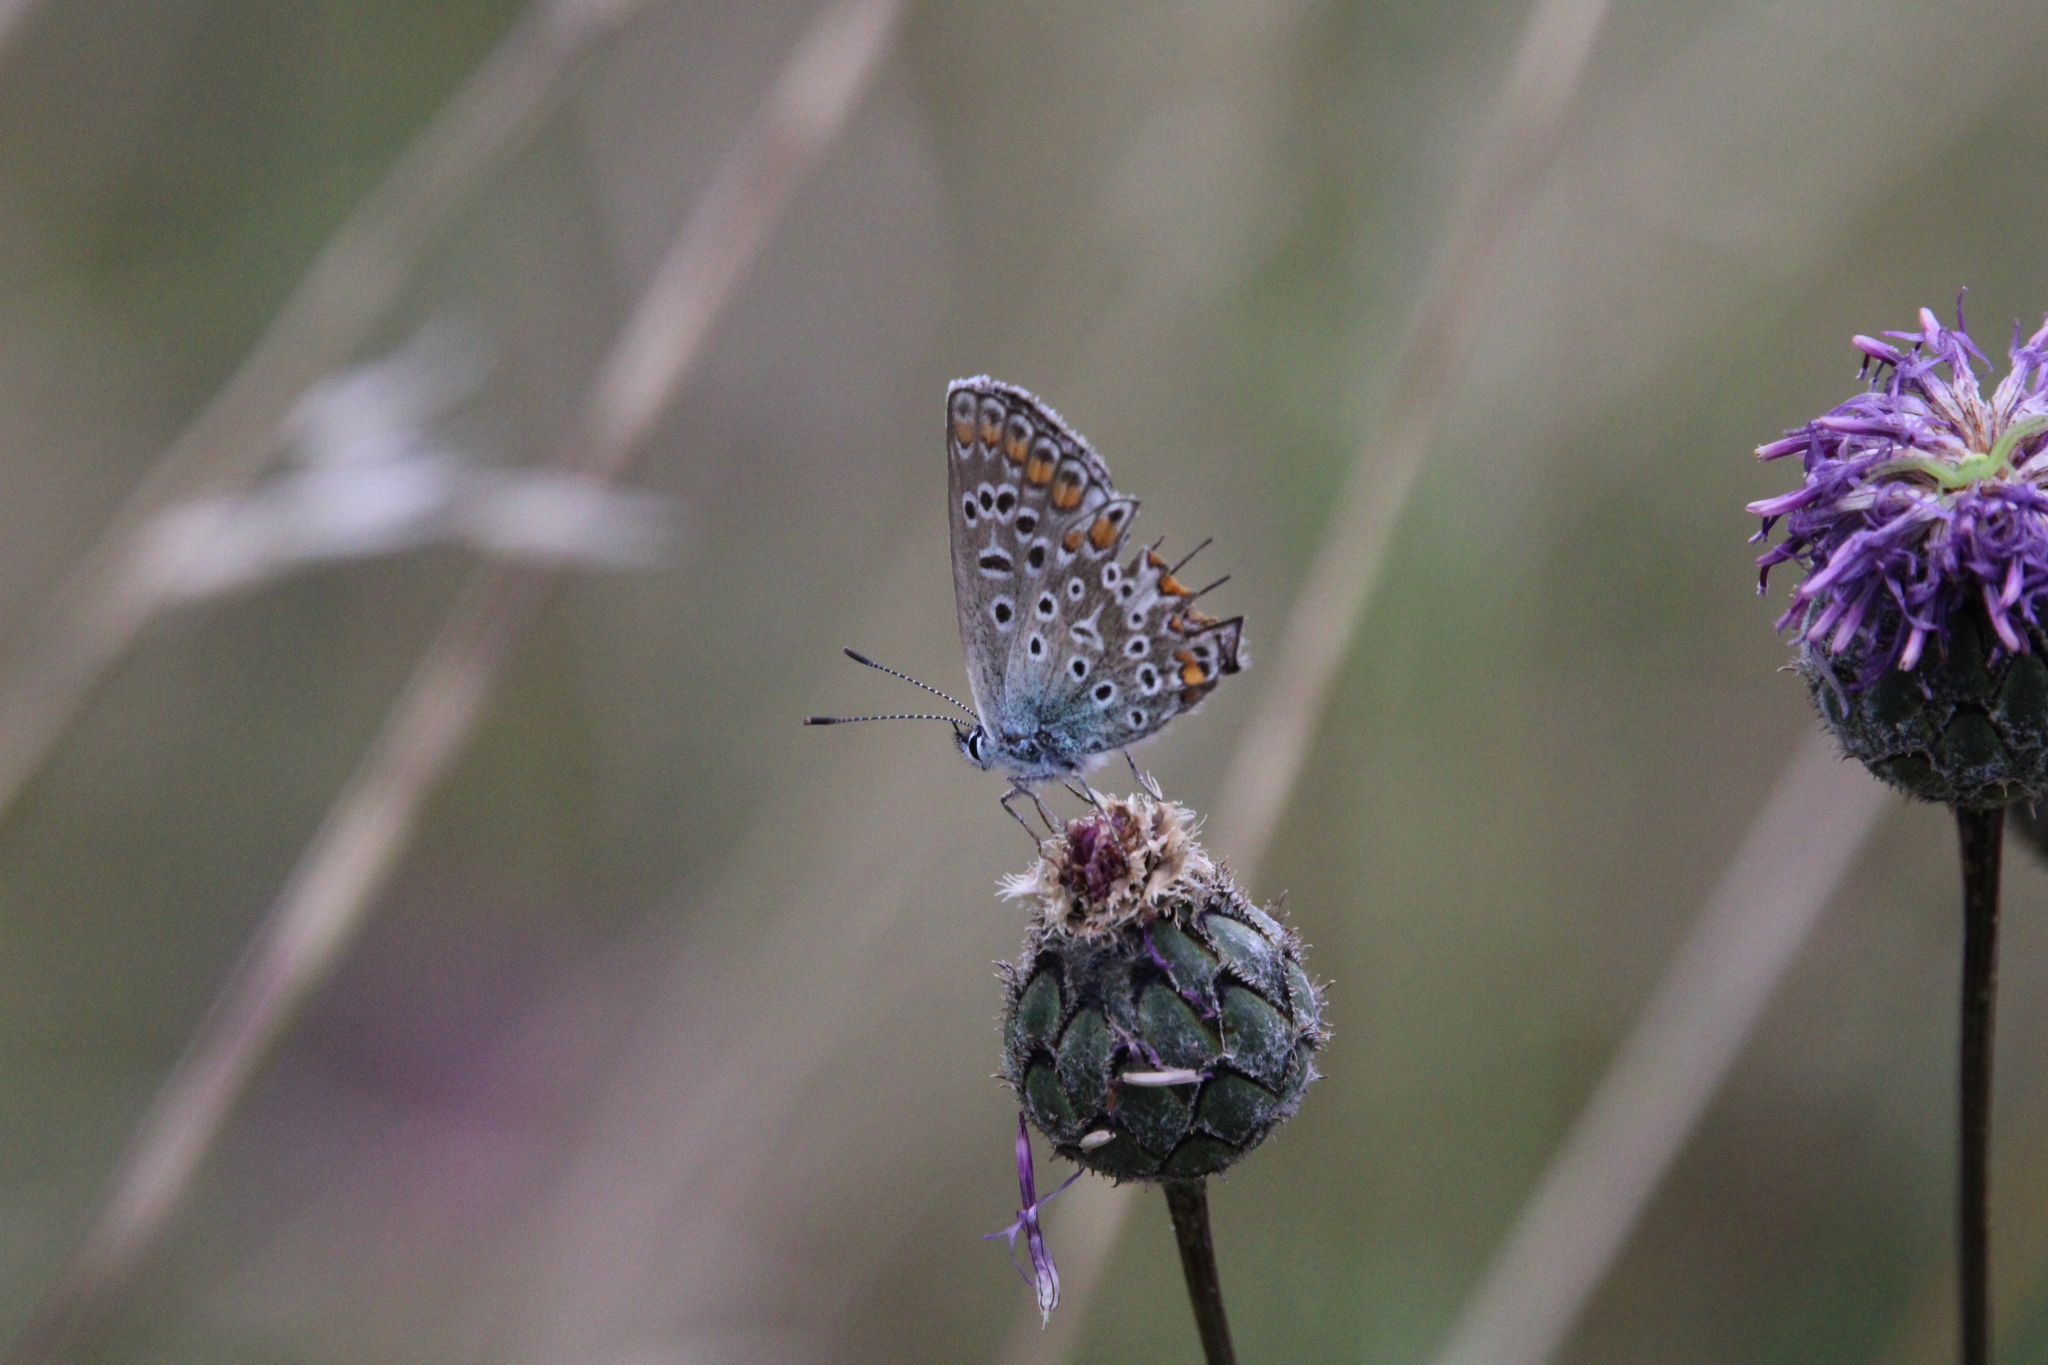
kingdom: Animalia
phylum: Arthropoda
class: Insecta
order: Lepidoptera
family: Lycaenidae
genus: Polyommatus
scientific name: Polyommatus icarus
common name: Common blue
